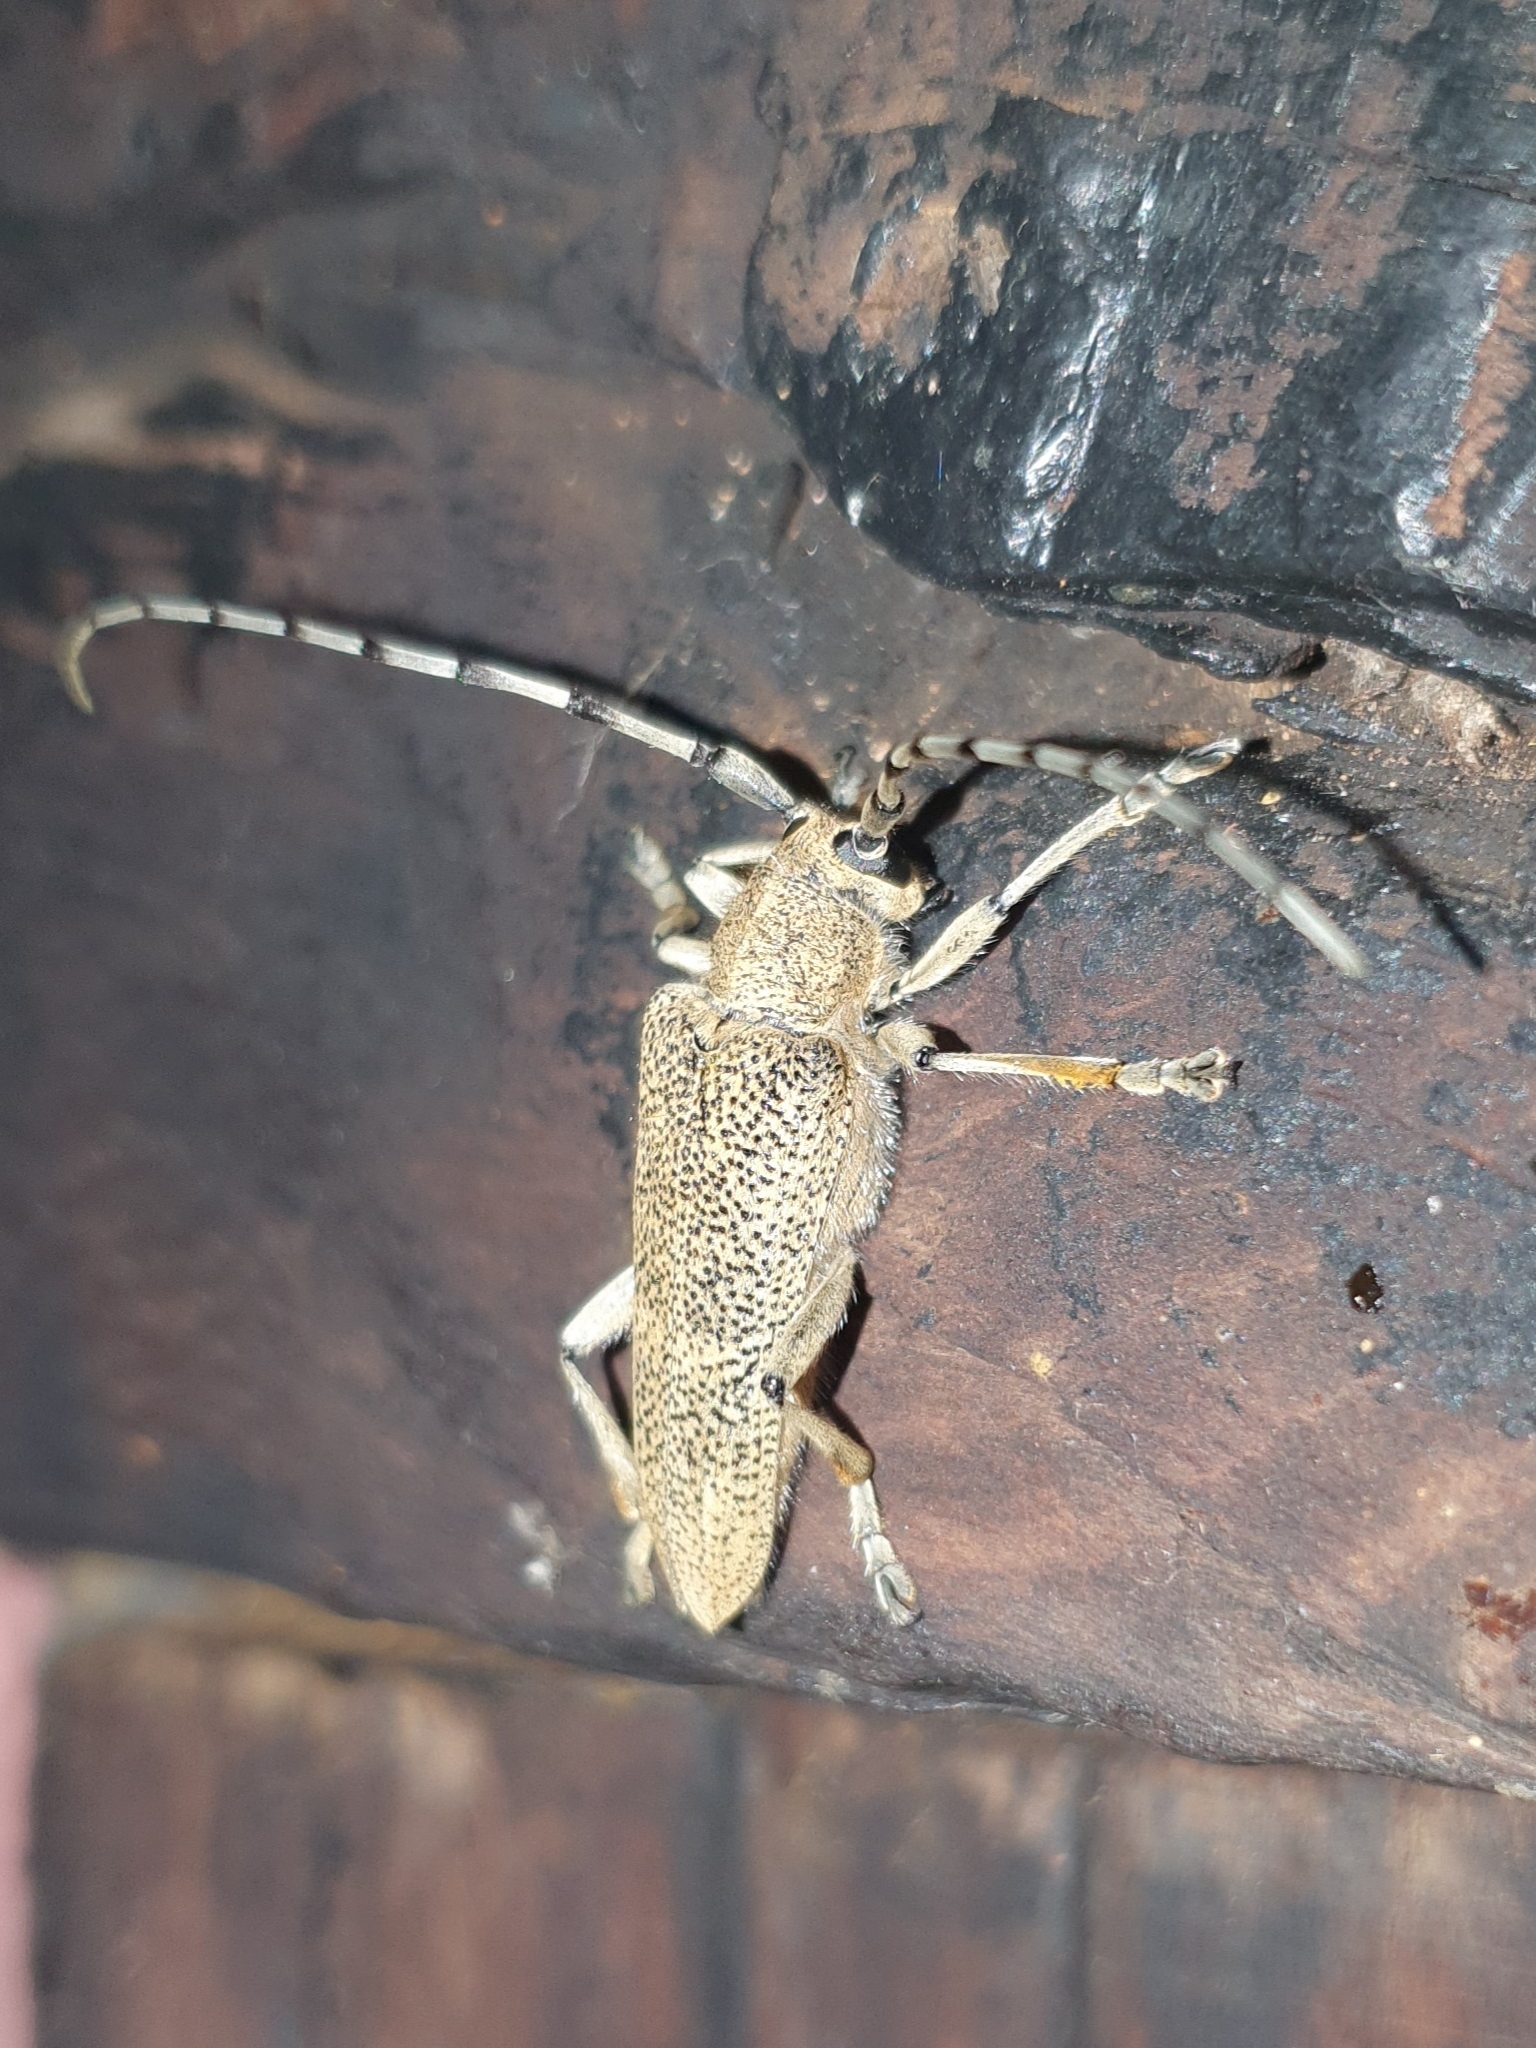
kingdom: Animalia
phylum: Arthropoda
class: Insecta
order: Coleoptera
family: Cerambycidae
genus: Saperda
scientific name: Saperda carcharias
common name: Poplar borer
